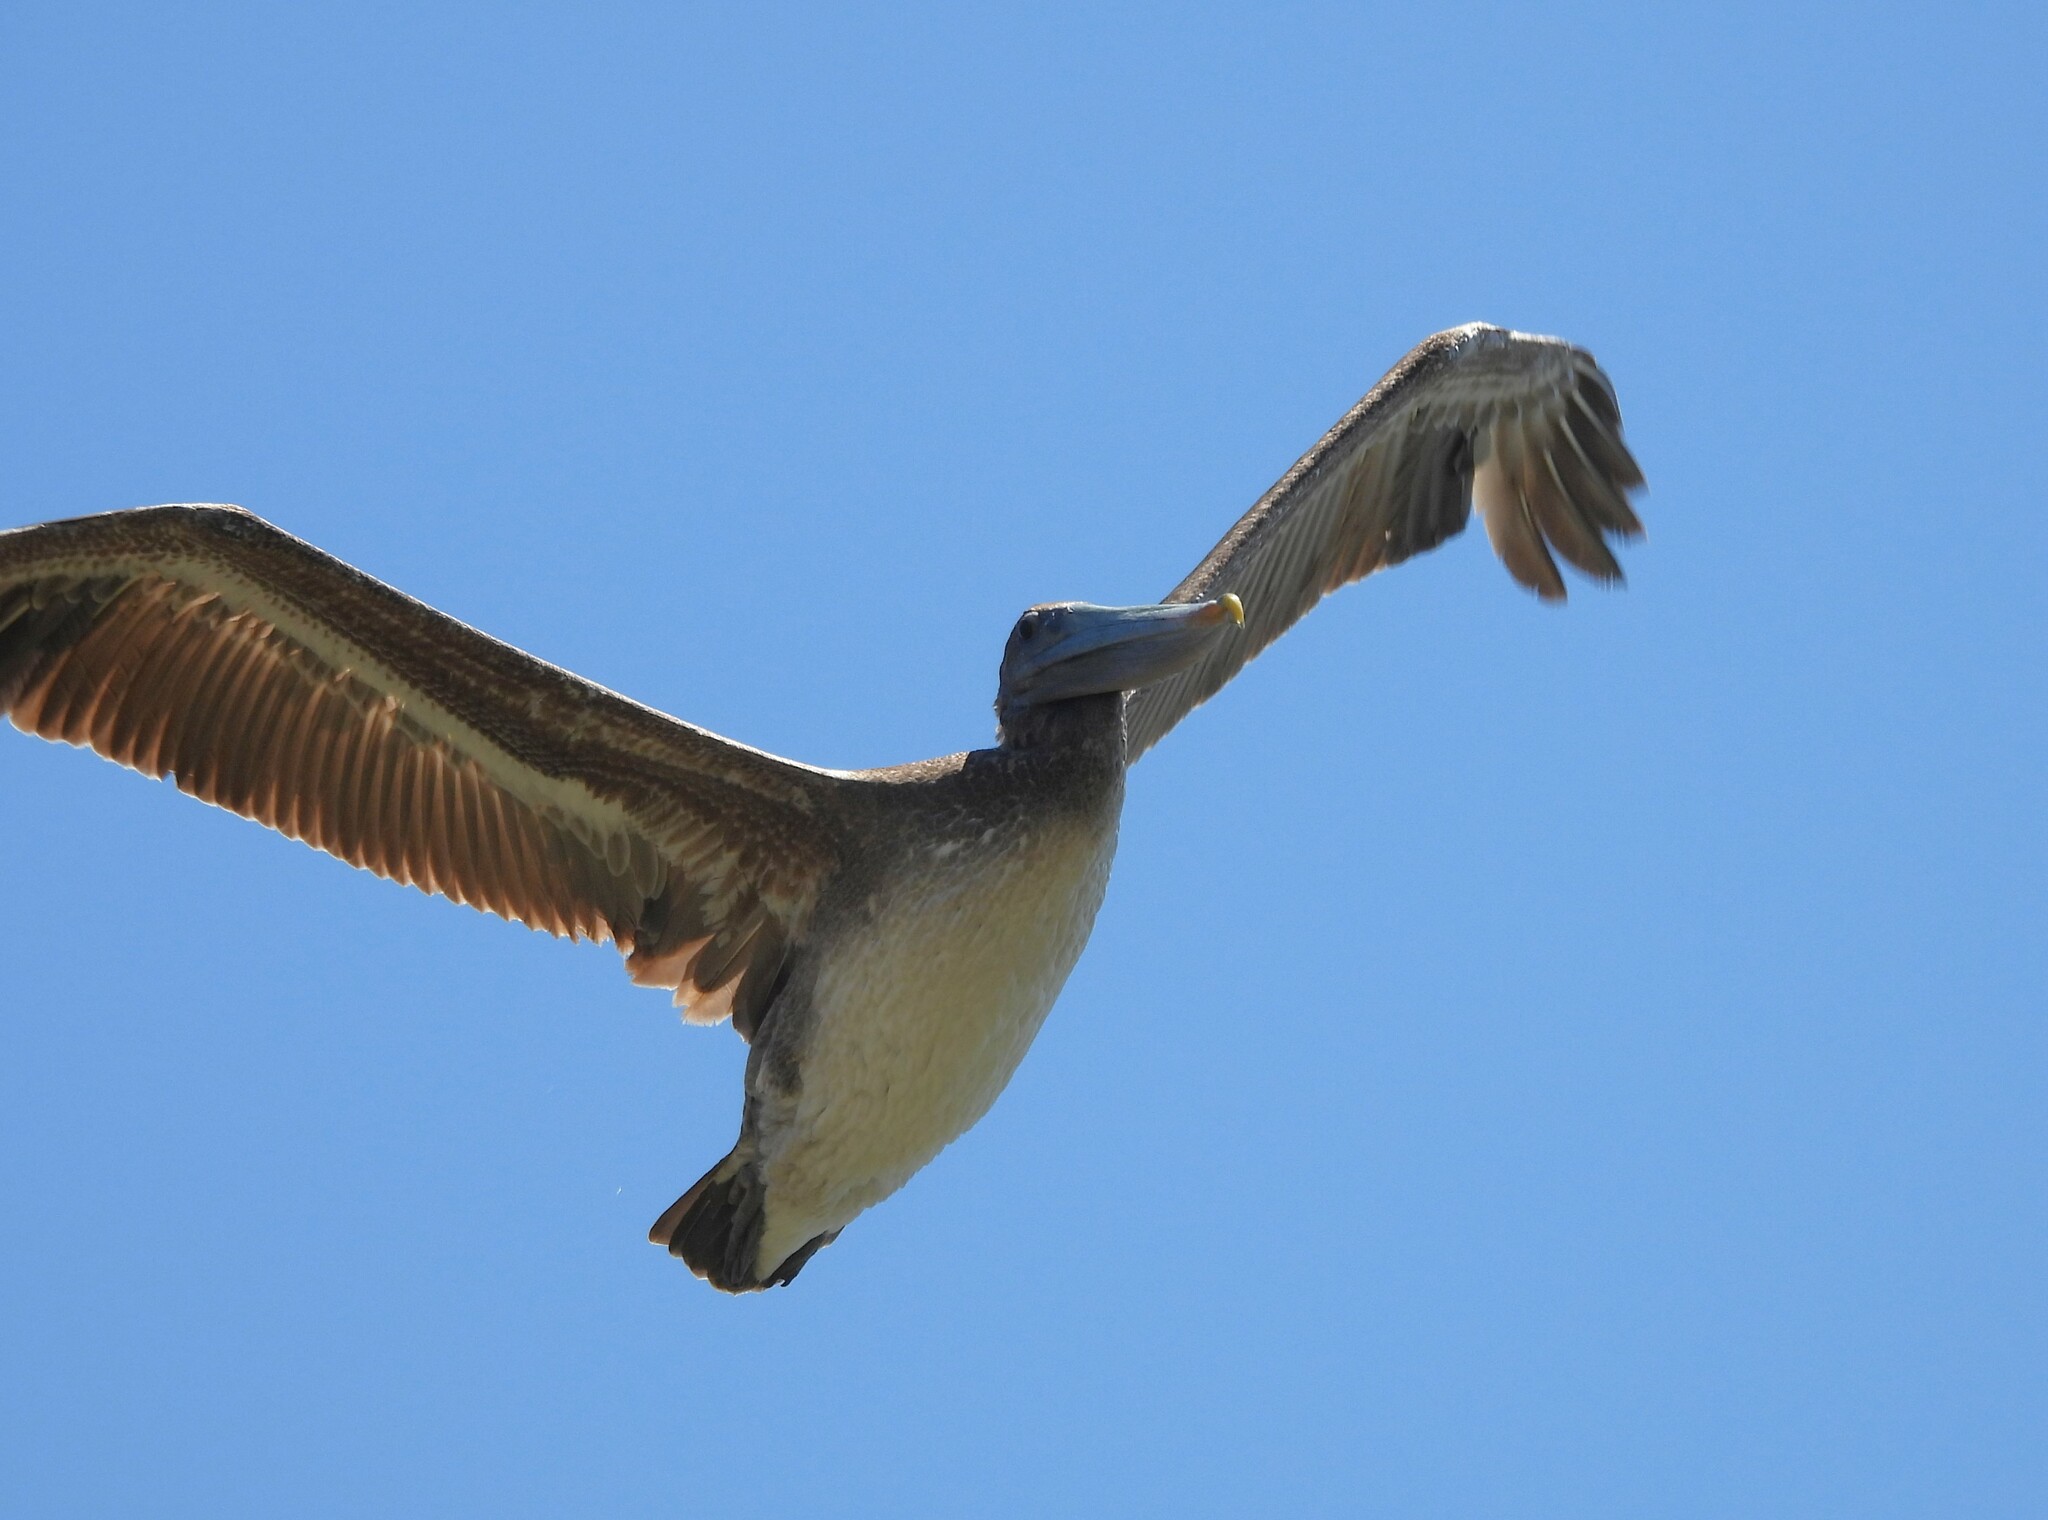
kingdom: Animalia
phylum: Chordata
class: Aves
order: Pelecaniformes
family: Pelecanidae
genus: Pelecanus
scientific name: Pelecanus occidentalis
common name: Brown pelican
